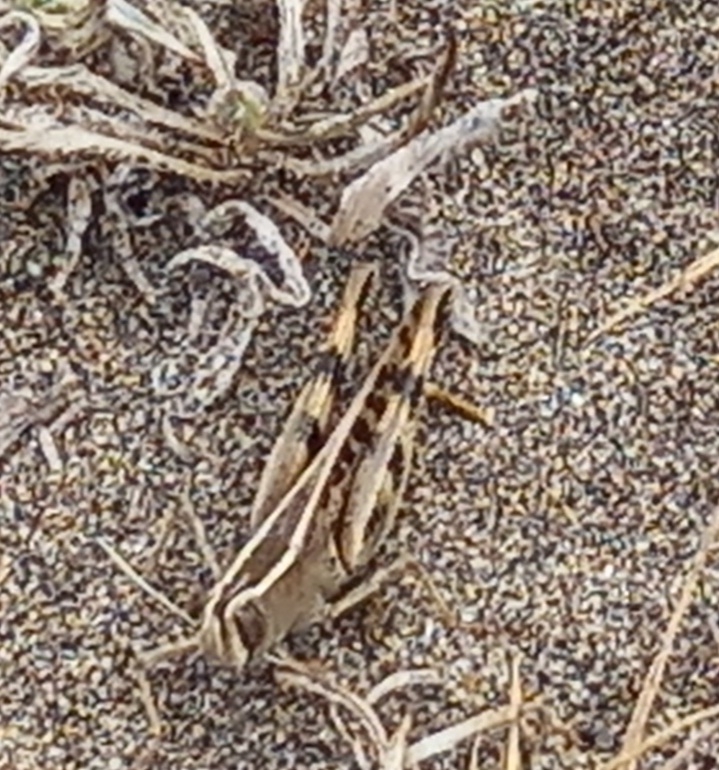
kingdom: Animalia
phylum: Arthropoda
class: Insecta
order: Orthoptera
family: Acrididae
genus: Heteracris
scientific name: Heteracris littoralis
